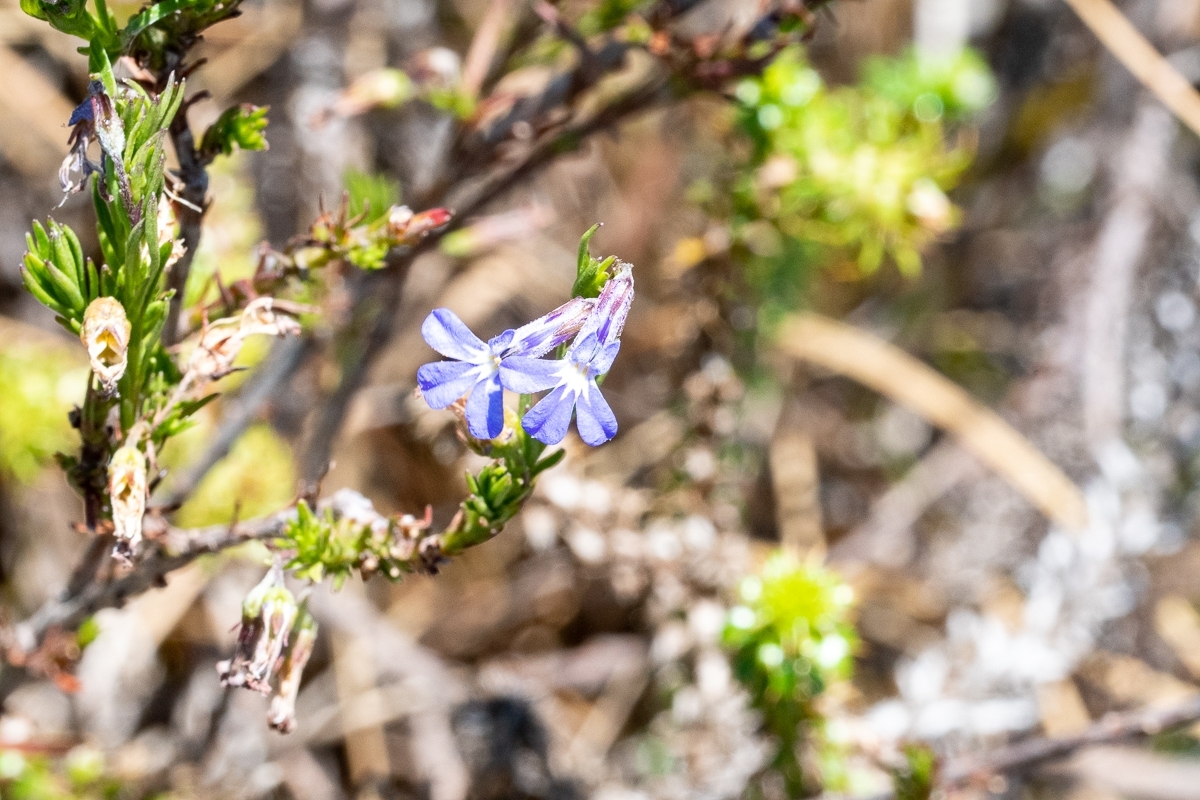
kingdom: Plantae
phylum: Tracheophyta
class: Magnoliopsida
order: Asterales
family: Campanulaceae
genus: Lobelia
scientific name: Lobelia pinifolia
